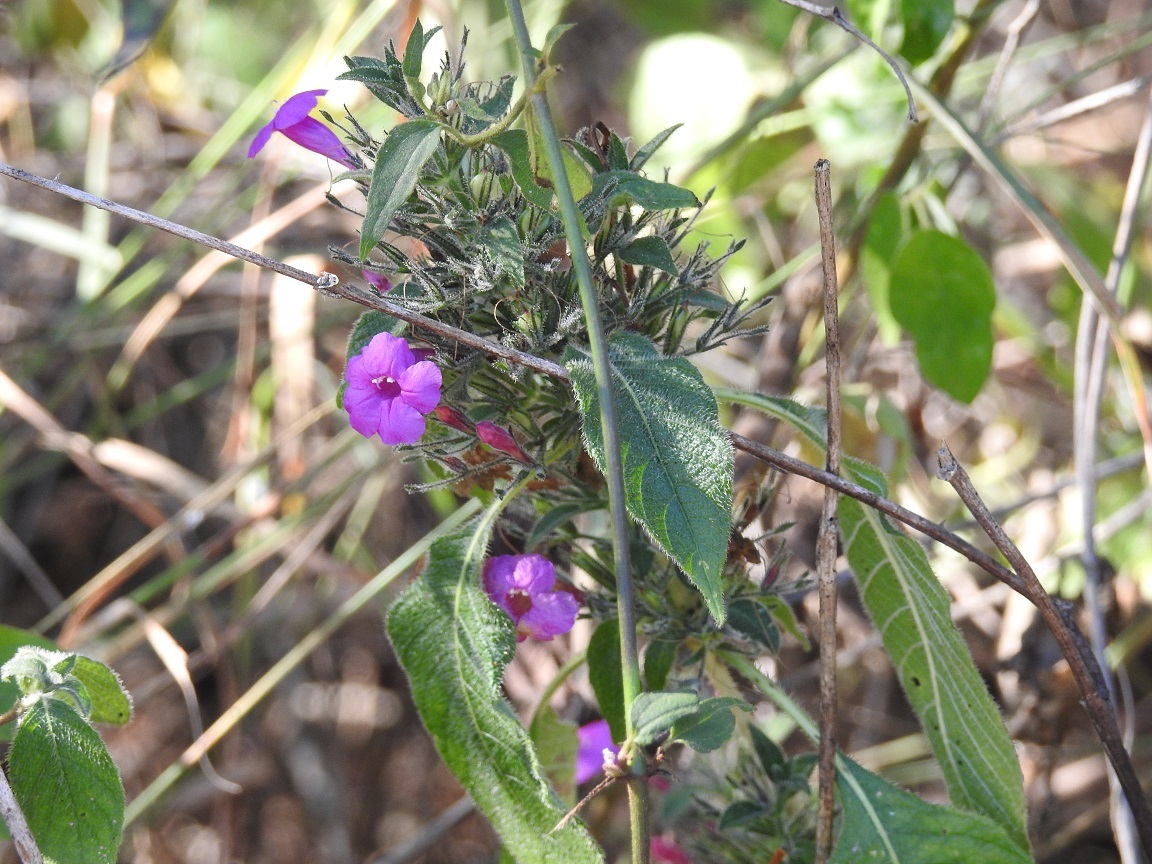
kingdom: Plantae
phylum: Tracheophyta
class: Magnoliopsida
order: Lamiales
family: Acanthaceae
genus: Ruellia
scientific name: Ruellia inundata
